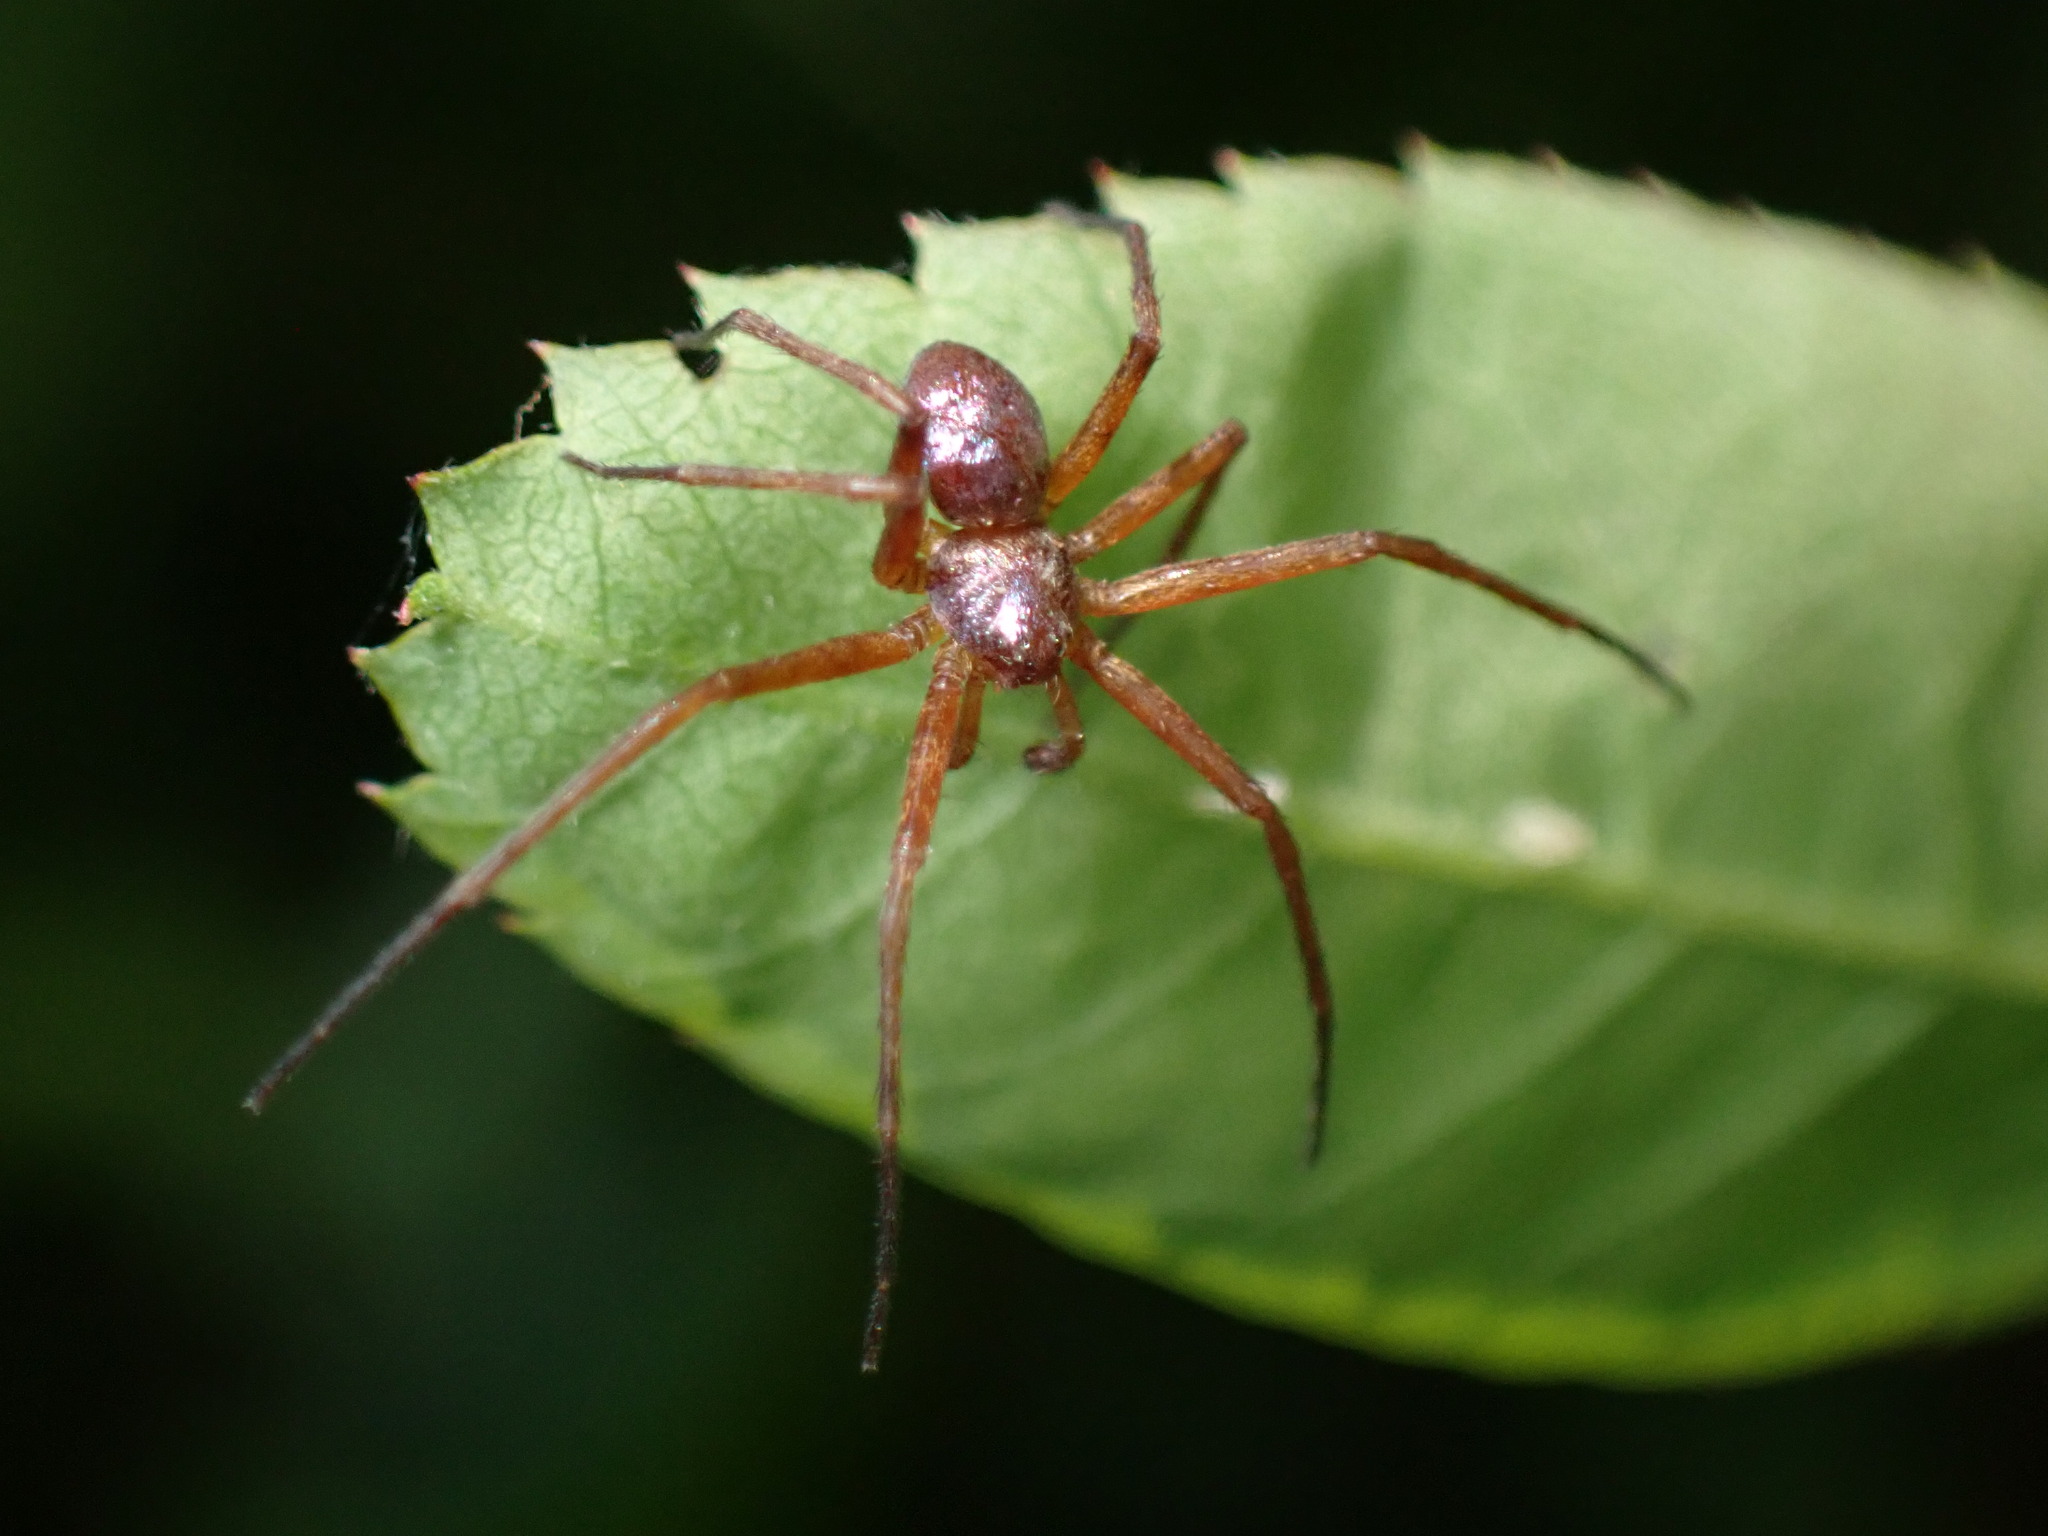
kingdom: Animalia
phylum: Arthropoda
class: Arachnida
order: Araneae
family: Philodromidae
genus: Philodromus
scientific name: Philodromus marxi
